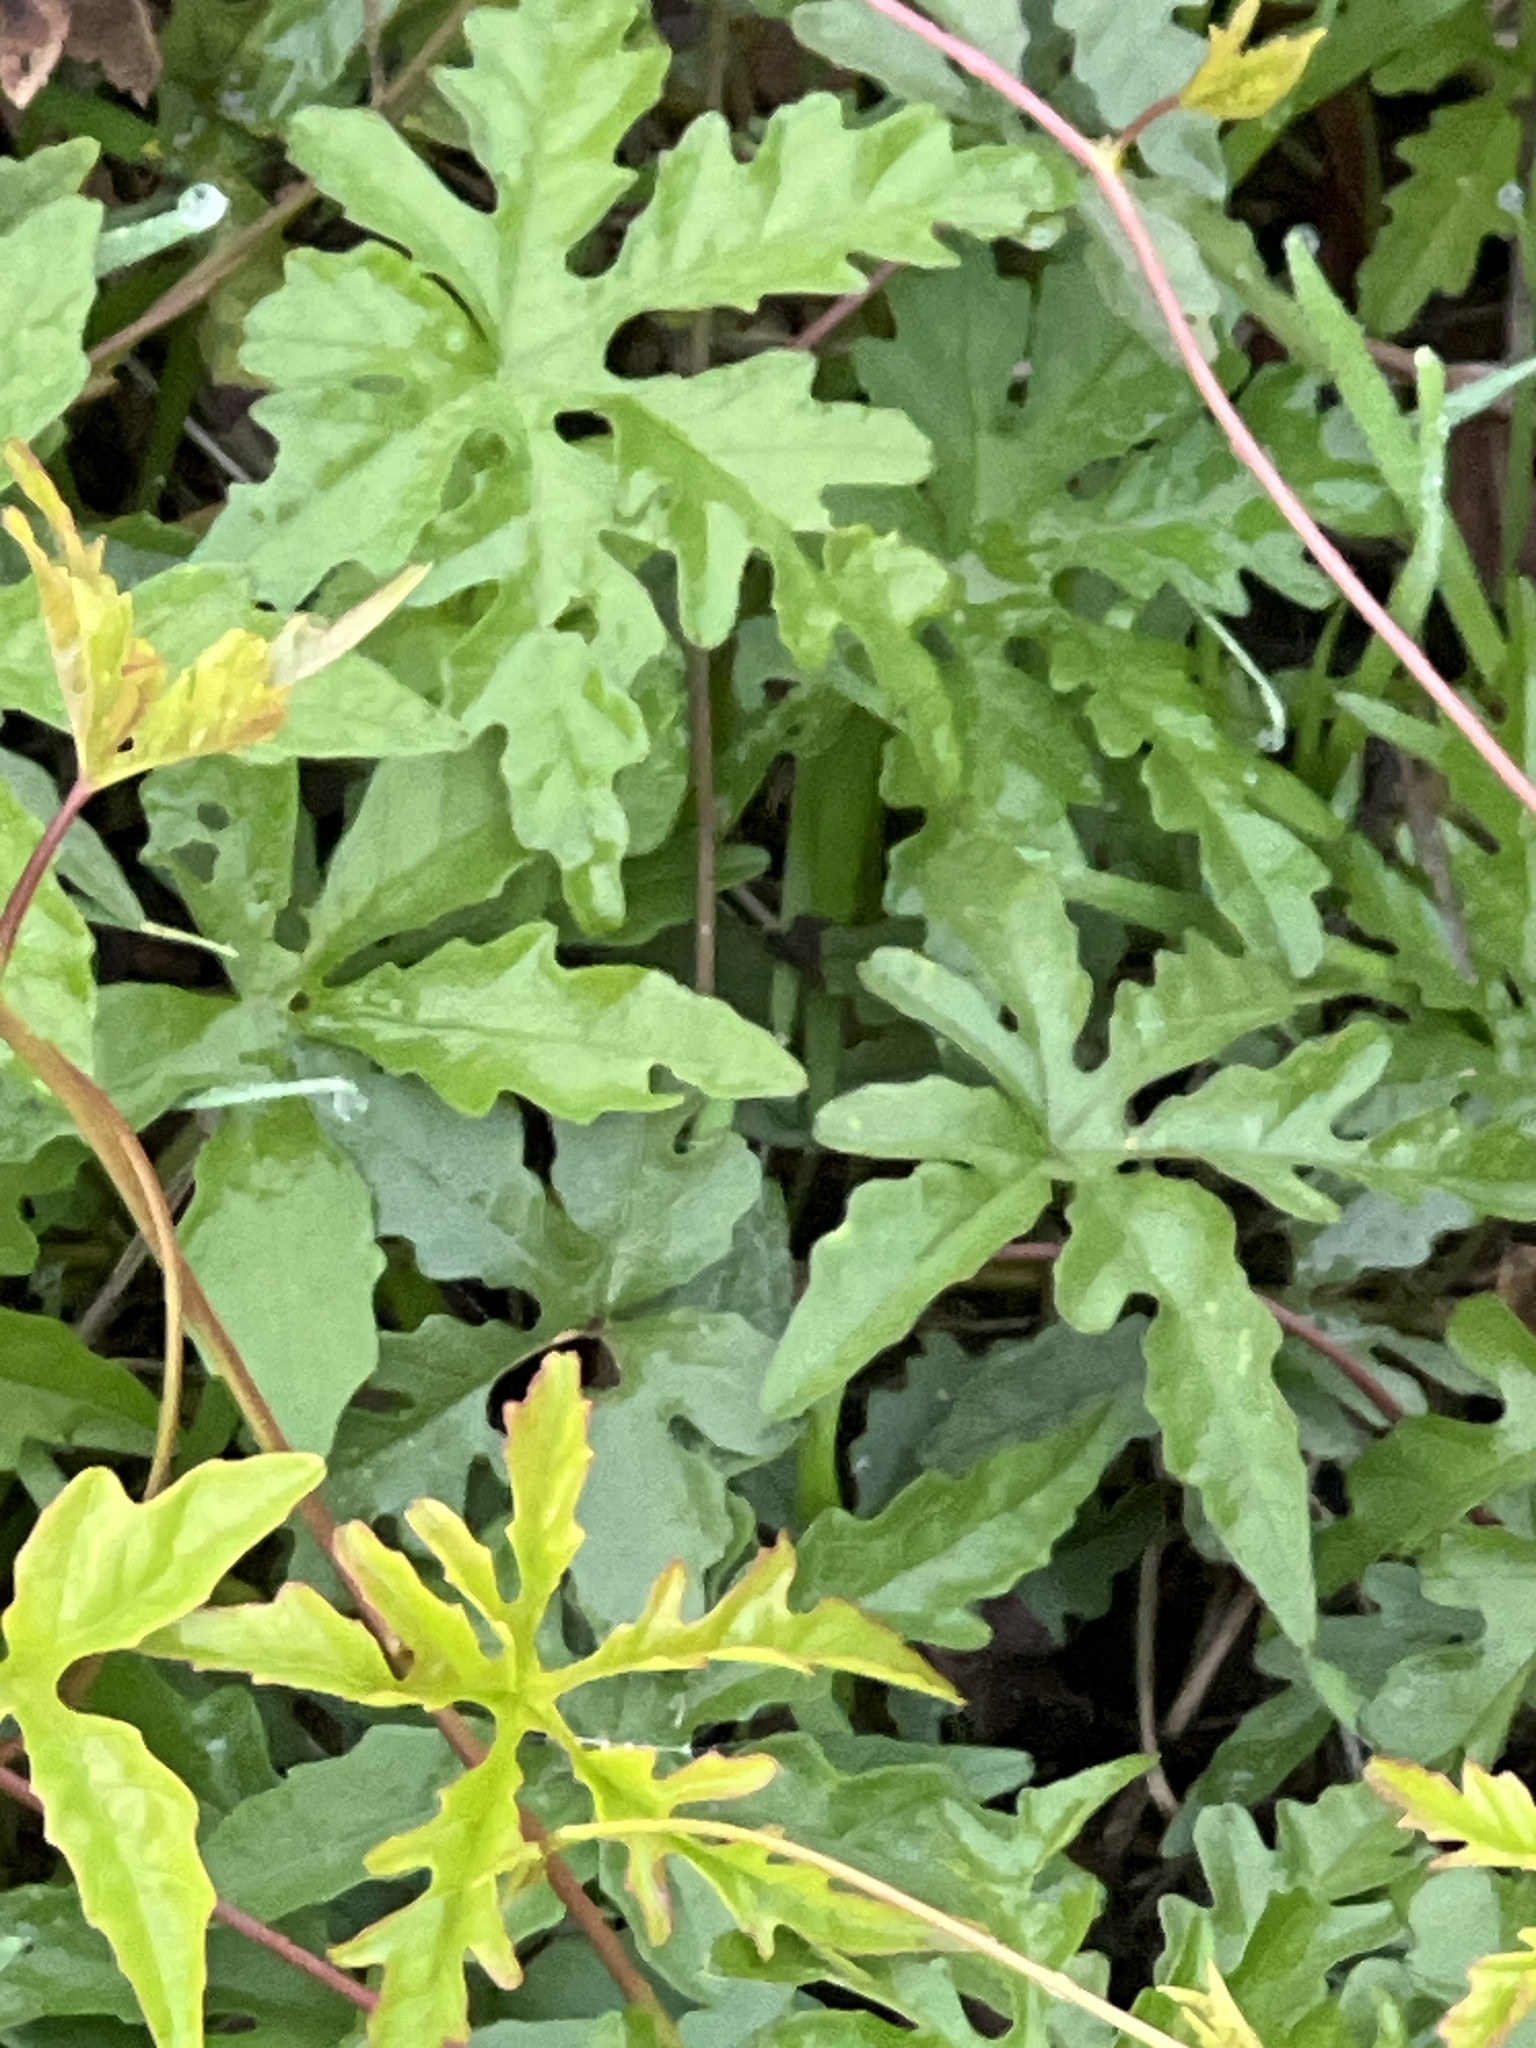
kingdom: Plantae
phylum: Tracheophyta
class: Magnoliopsida
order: Solanales
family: Convolvulaceae
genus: Distimake
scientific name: Distimake dissectus
